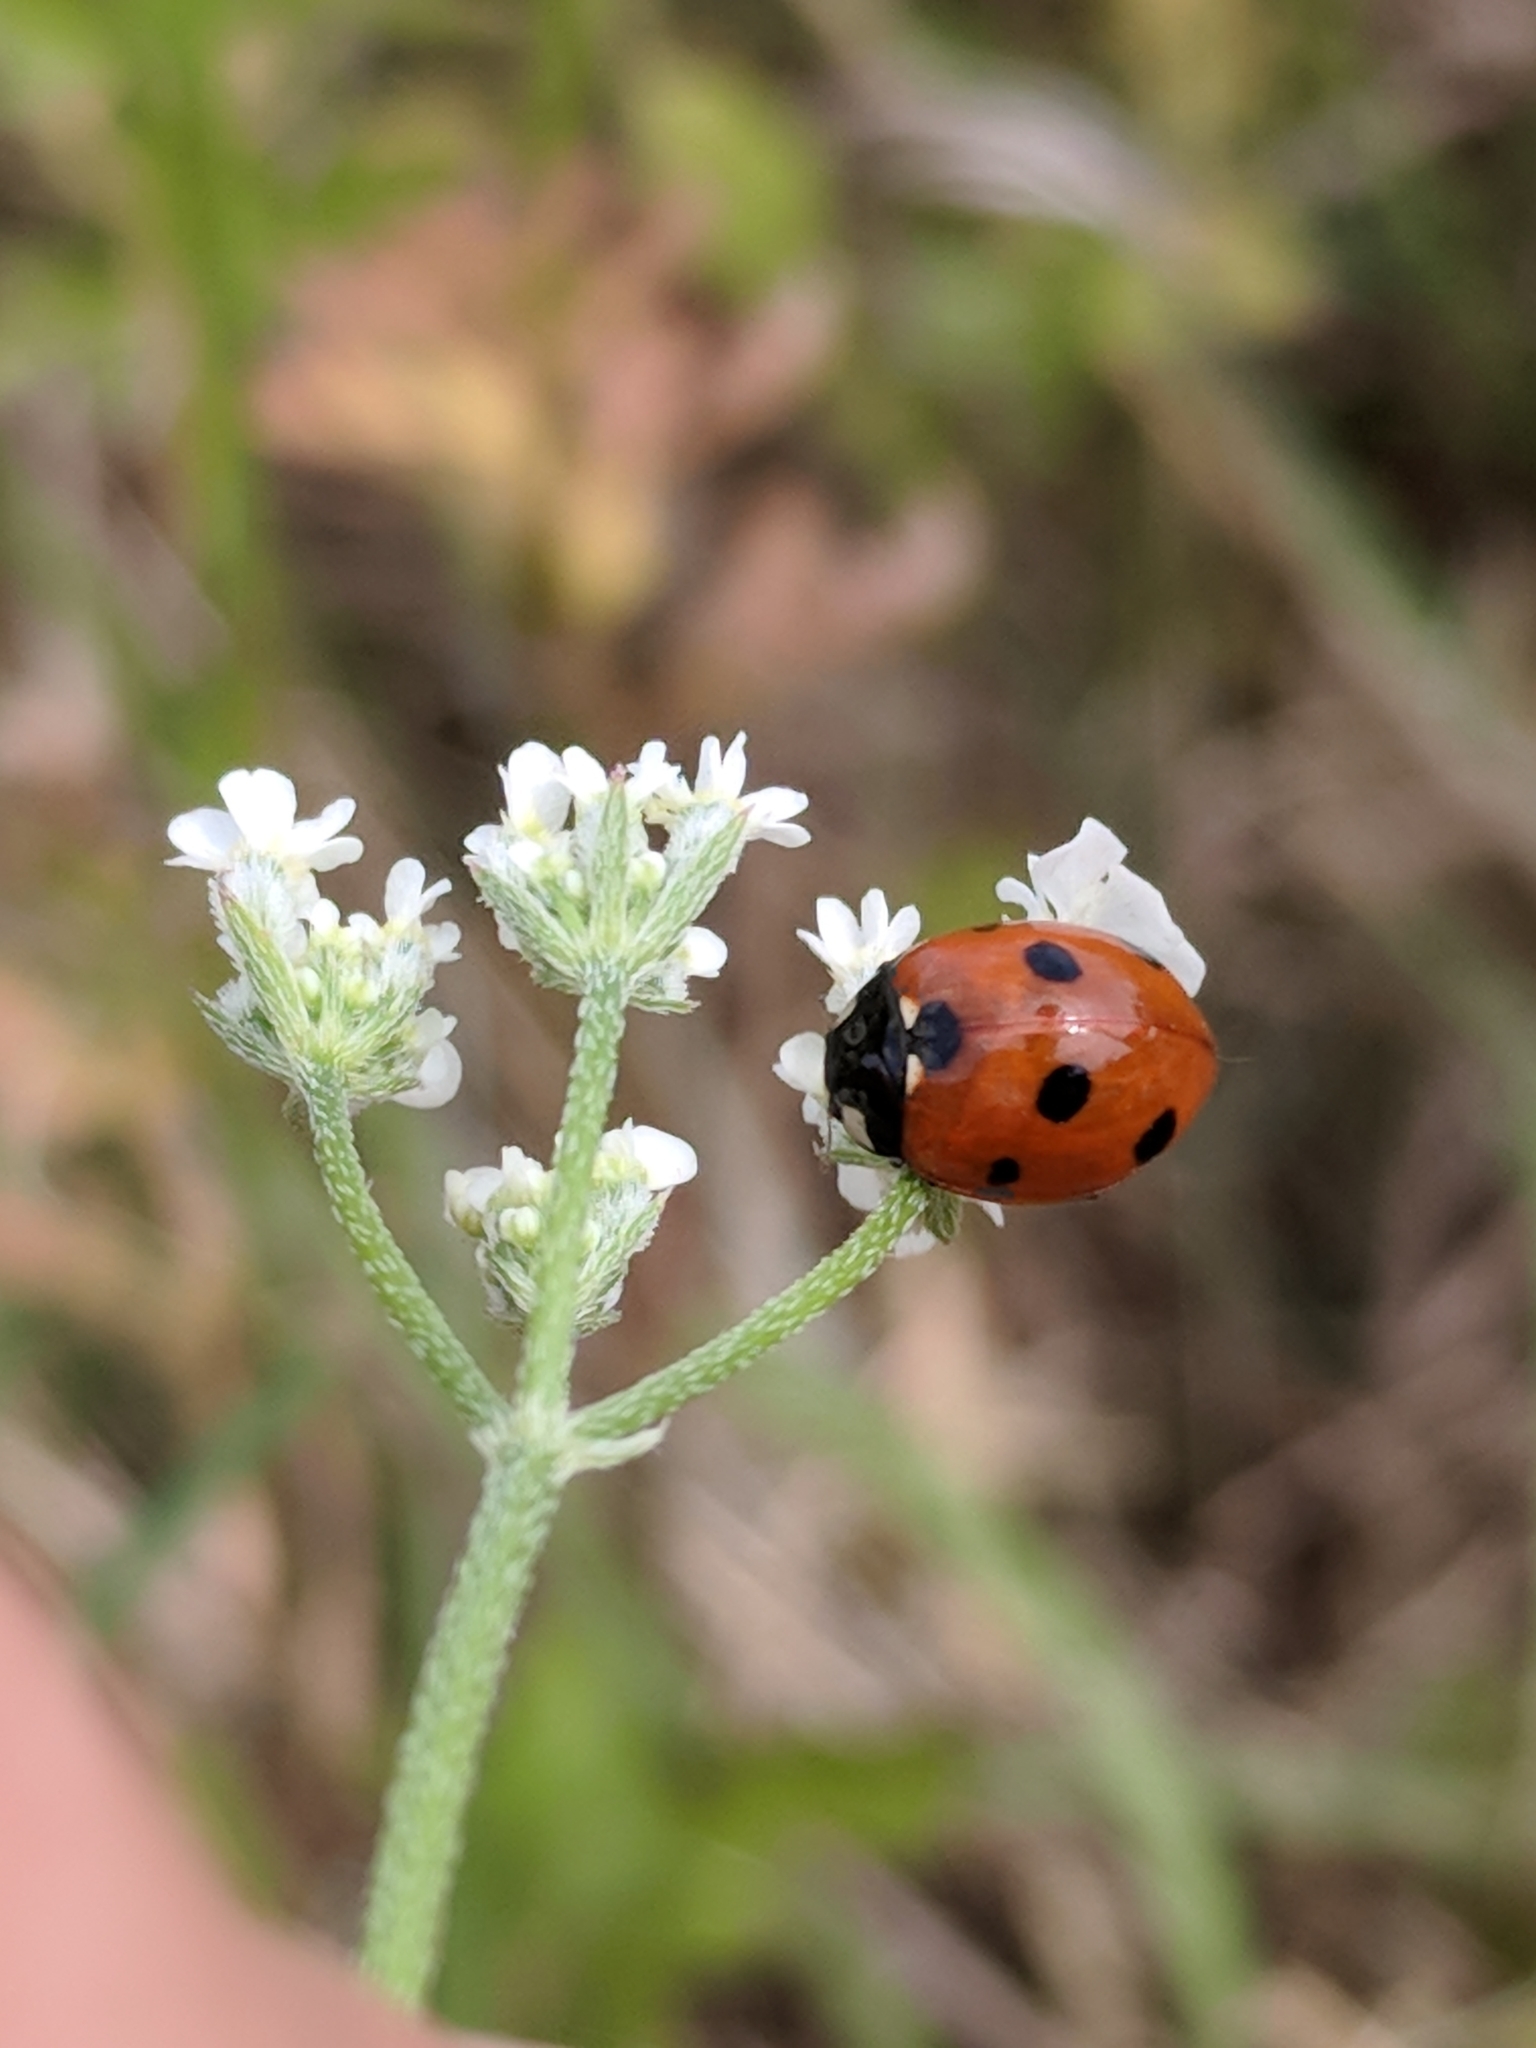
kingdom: Animalia
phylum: Arthropoda
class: Insecta
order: Coleoptera
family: Coccinellidae
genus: Coccinella
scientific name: Coccinella septempunctata
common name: Sevenspotted lady beetle
